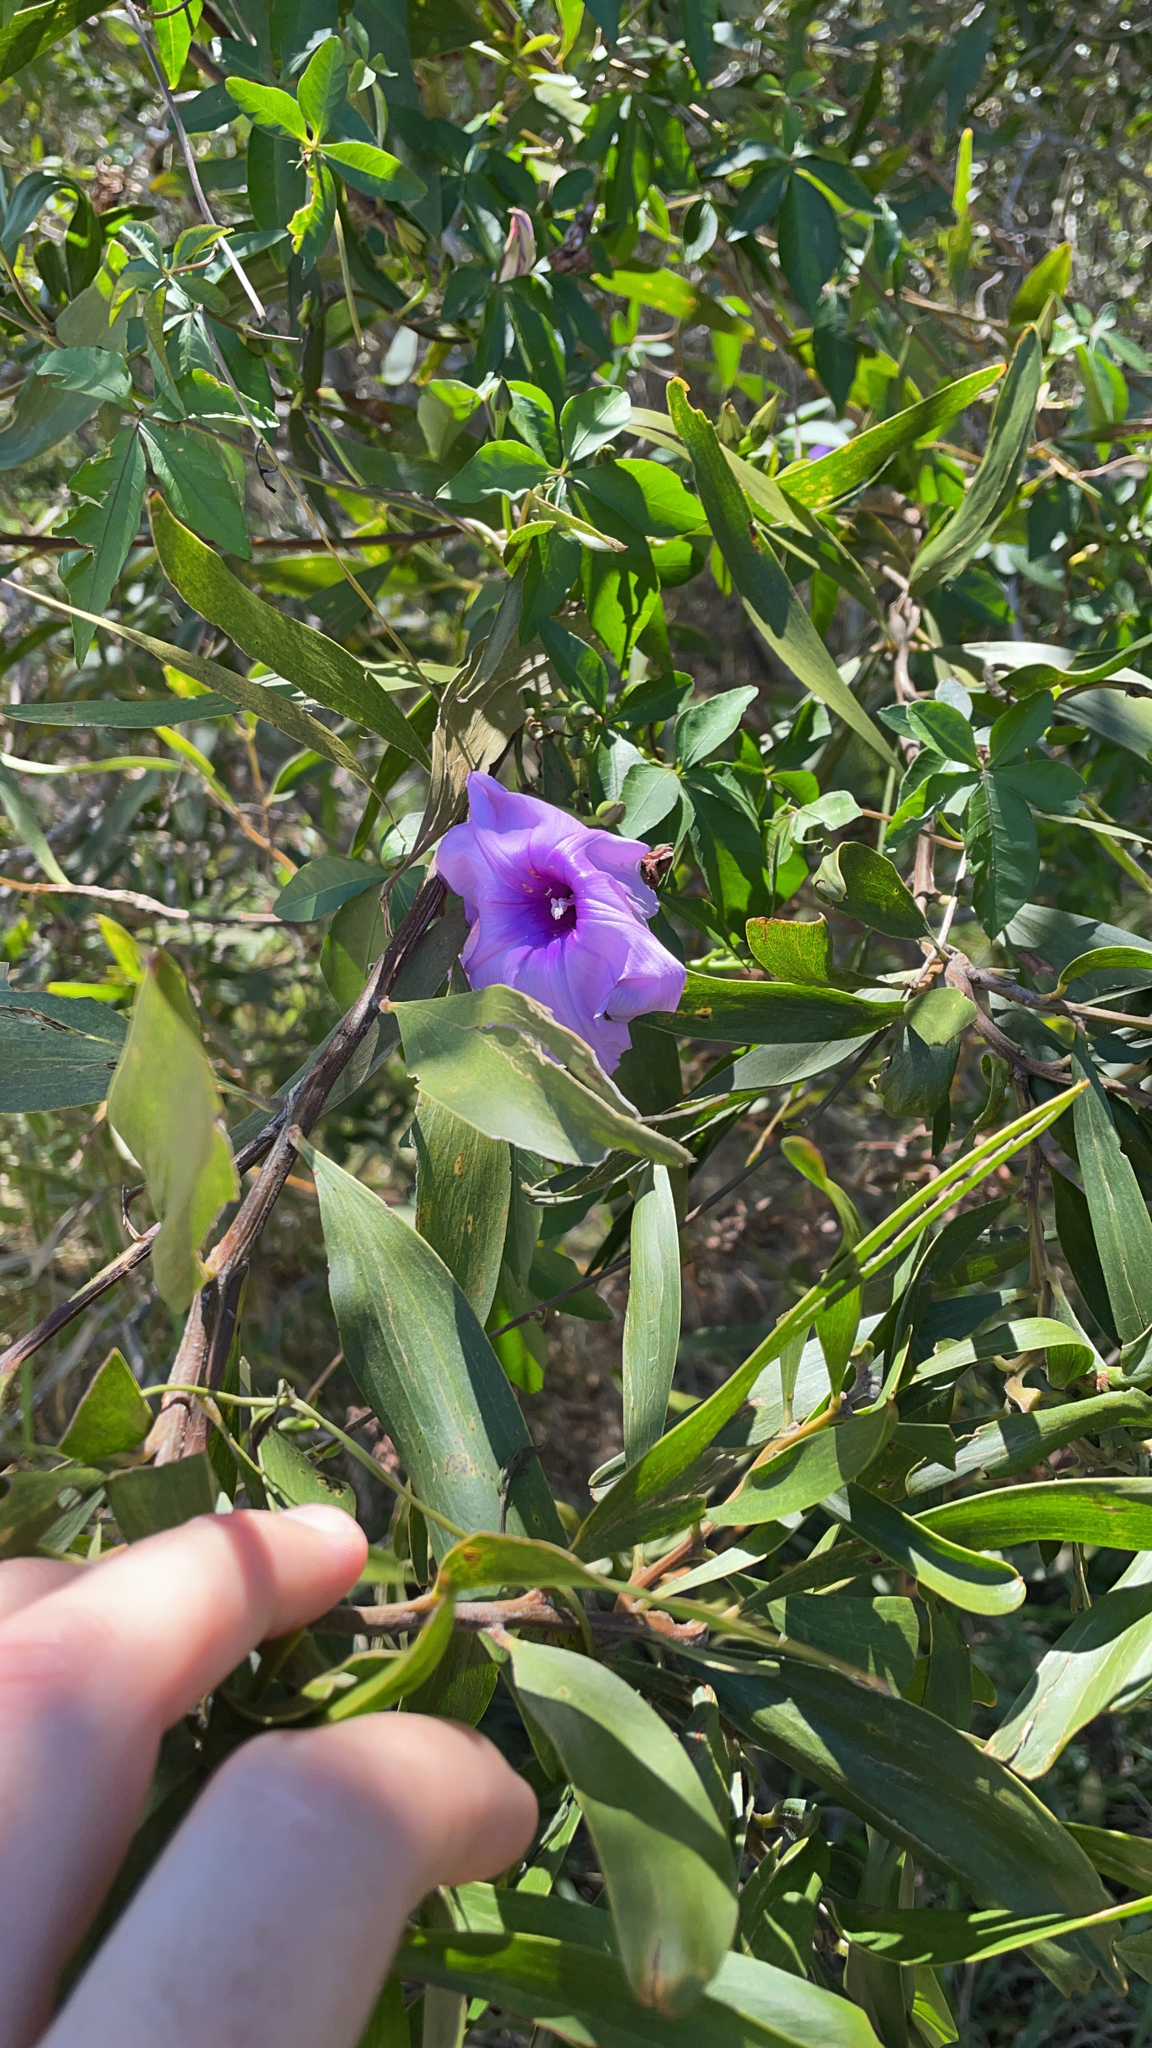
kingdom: Plantae
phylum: Tracheophyta
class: Magnoliopsida
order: Solanales
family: Convolvulaceae
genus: Ipomoea
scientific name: Ipomoea cairica
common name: Mile a minute vine
